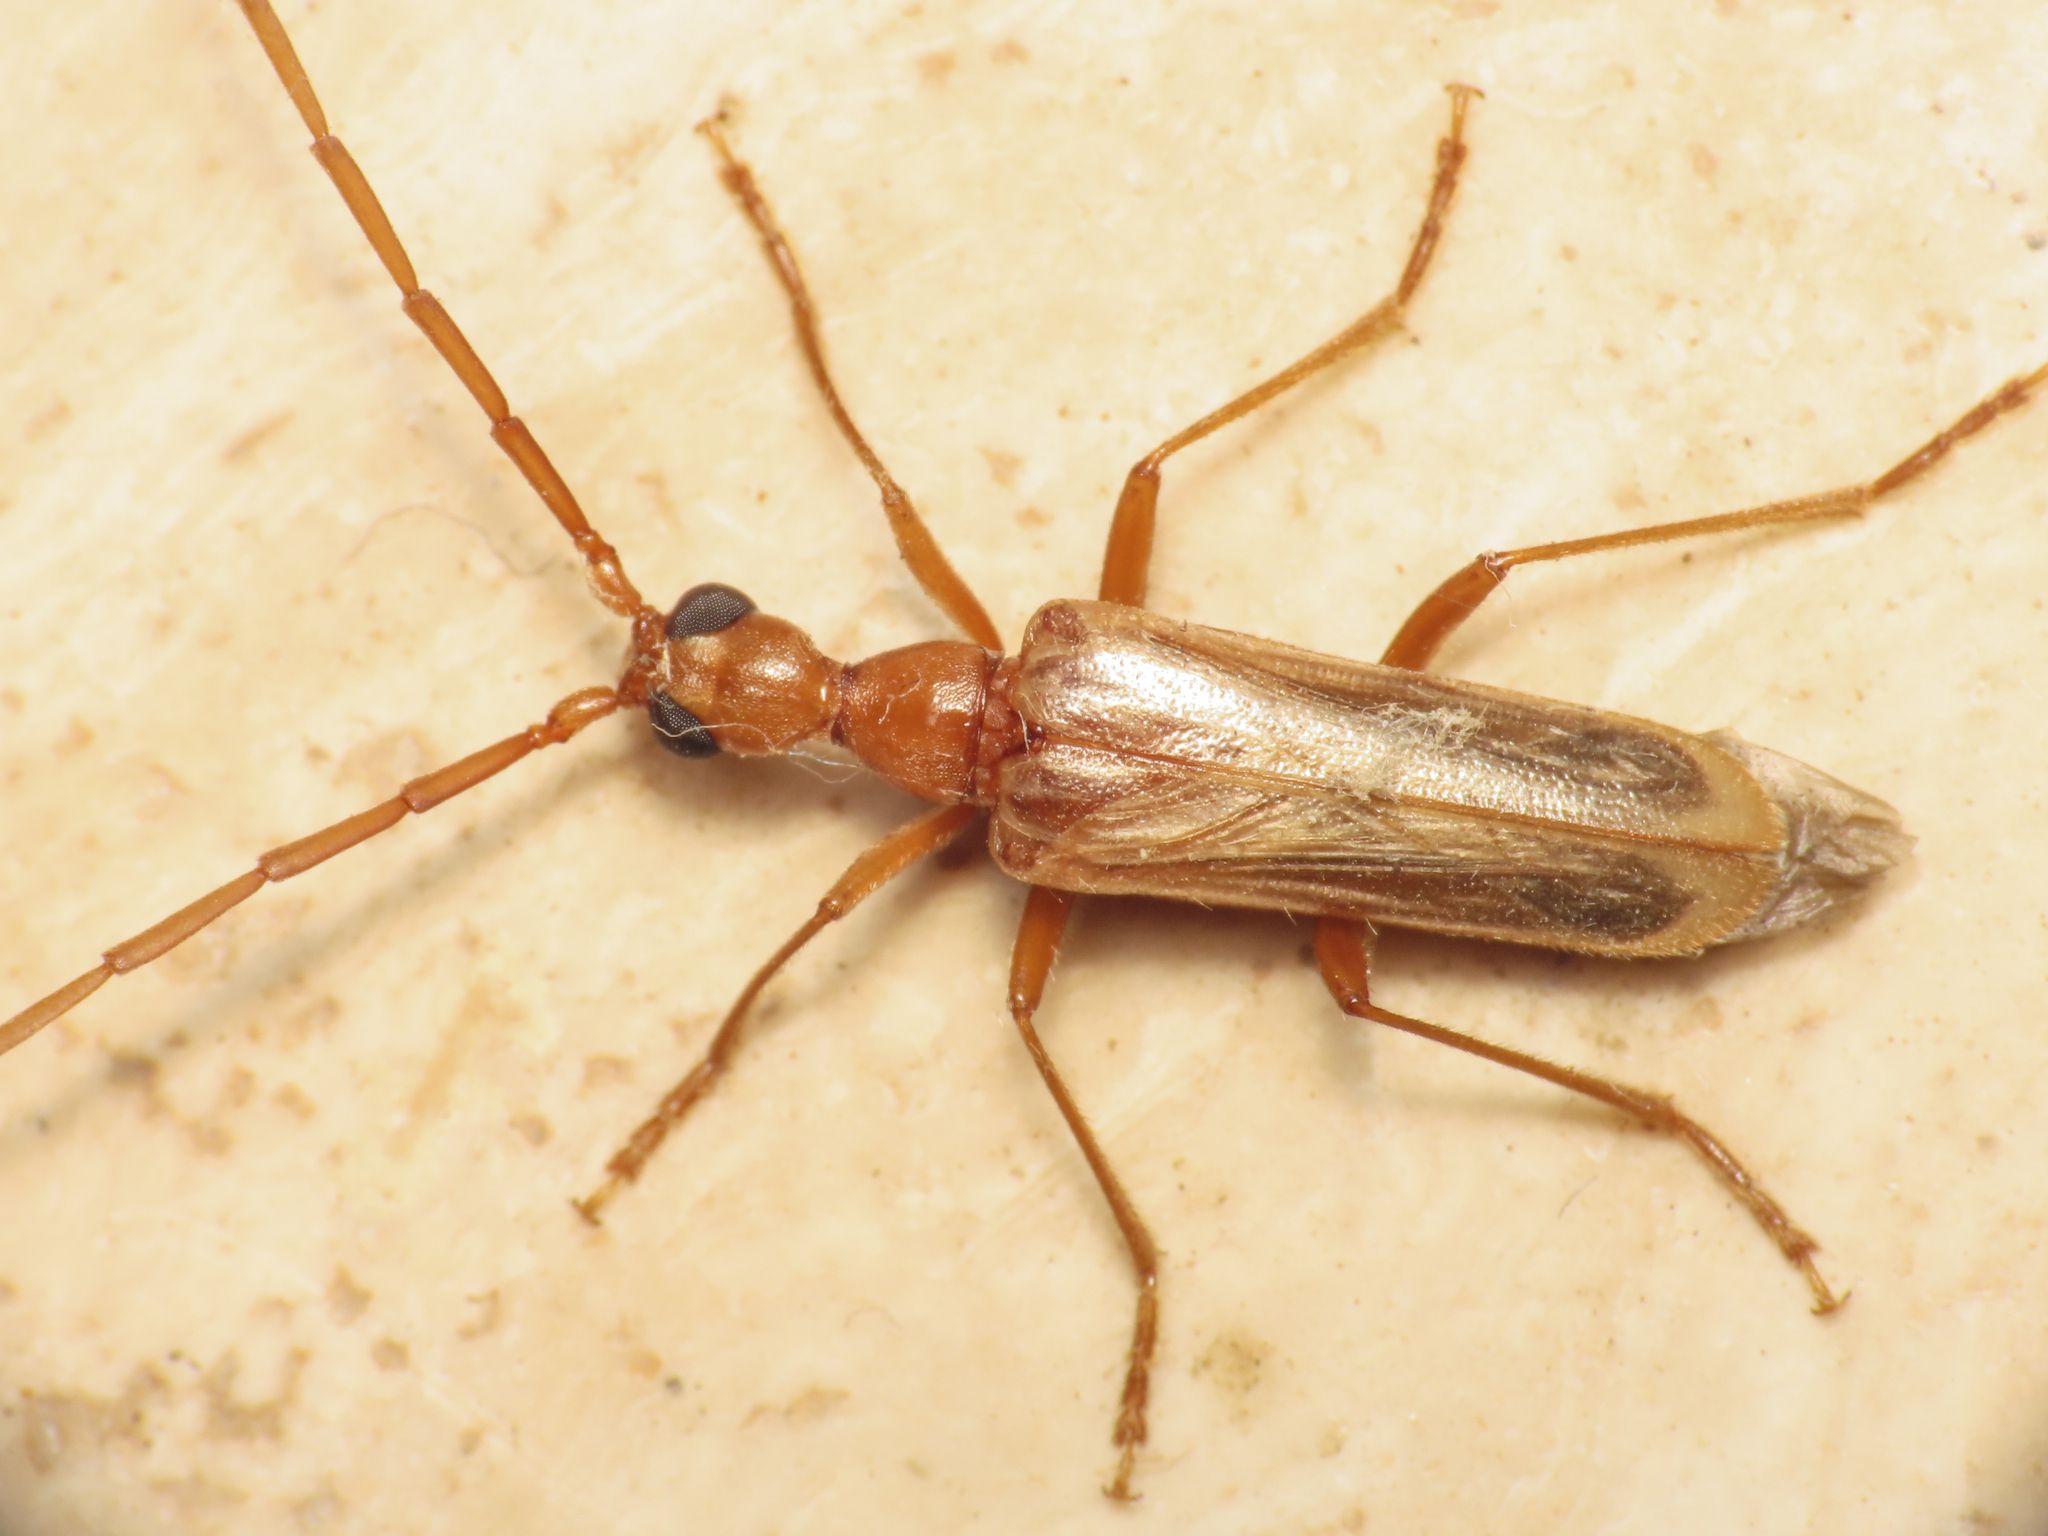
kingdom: Animalia
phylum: Arthropoda
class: Insecta
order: Coleoptera
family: Cerambycidae
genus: Vesperus
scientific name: Vesperus luridus
